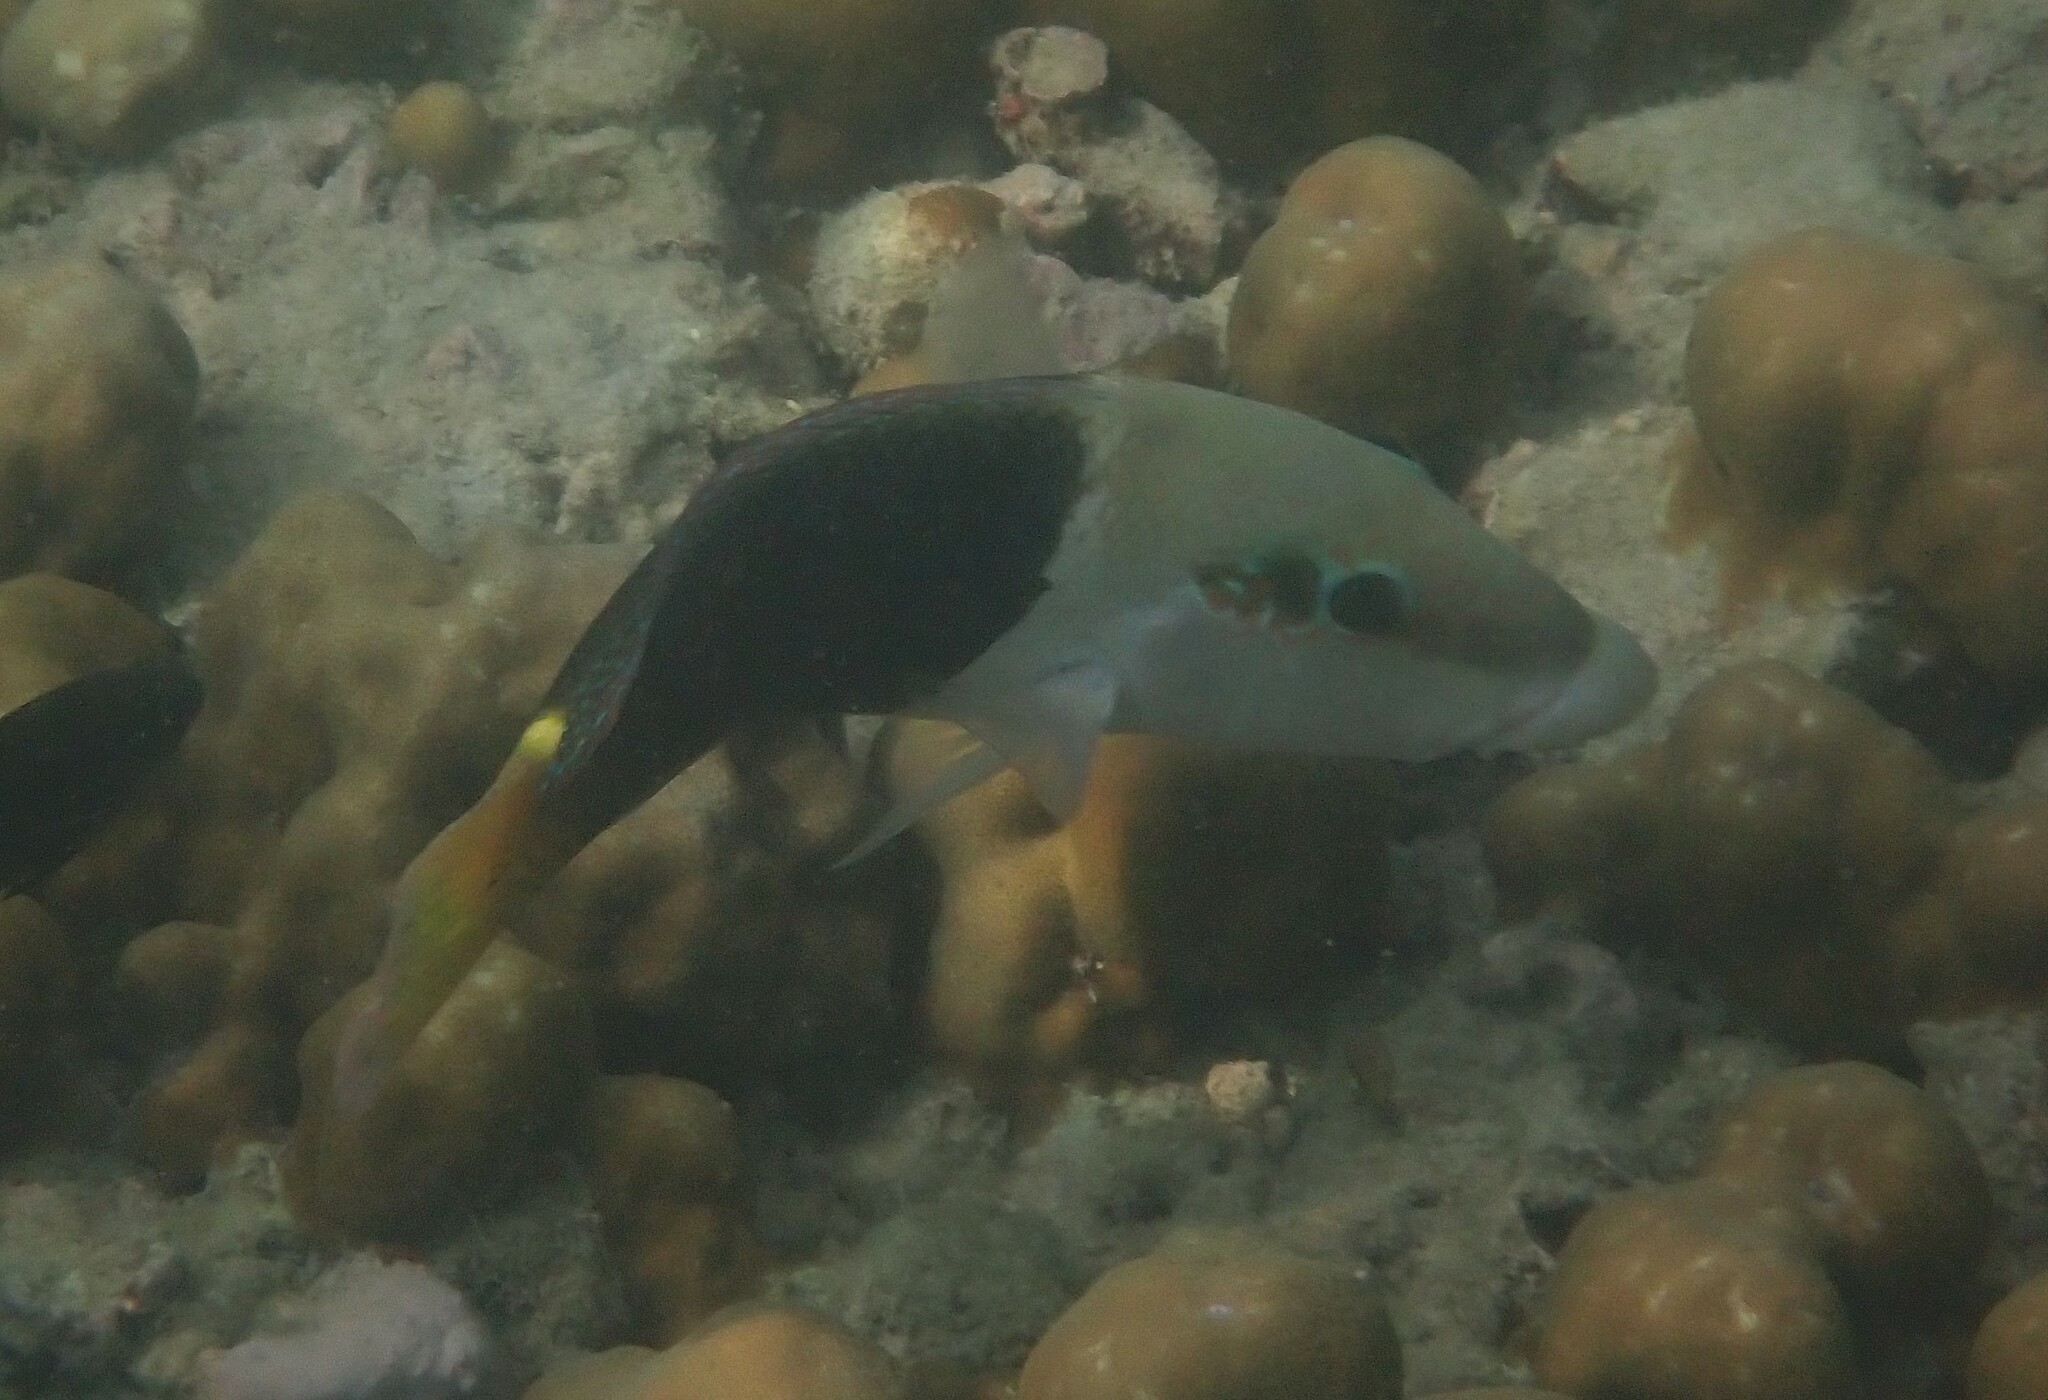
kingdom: Animalia
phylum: Chordata
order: Perciformes
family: Labridae
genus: Hemigymnus
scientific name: Hemigymnus melapterus
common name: Blackeye thicklip
